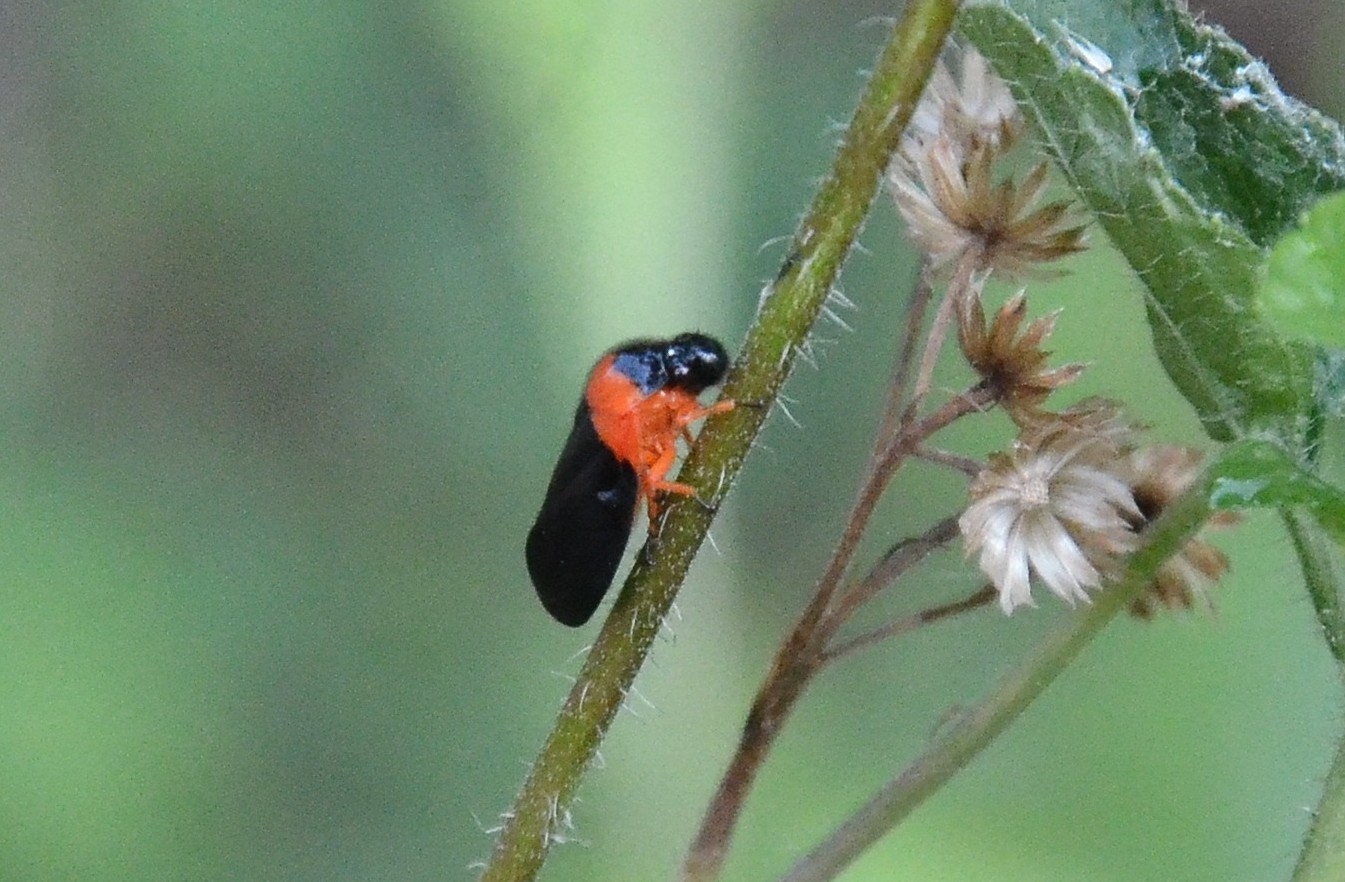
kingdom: Animalia
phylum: Arthropoda
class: Insecta
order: Hemiptera
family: Cercopidae
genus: Phymatostetha
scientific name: Phymatostetha deschampsi
